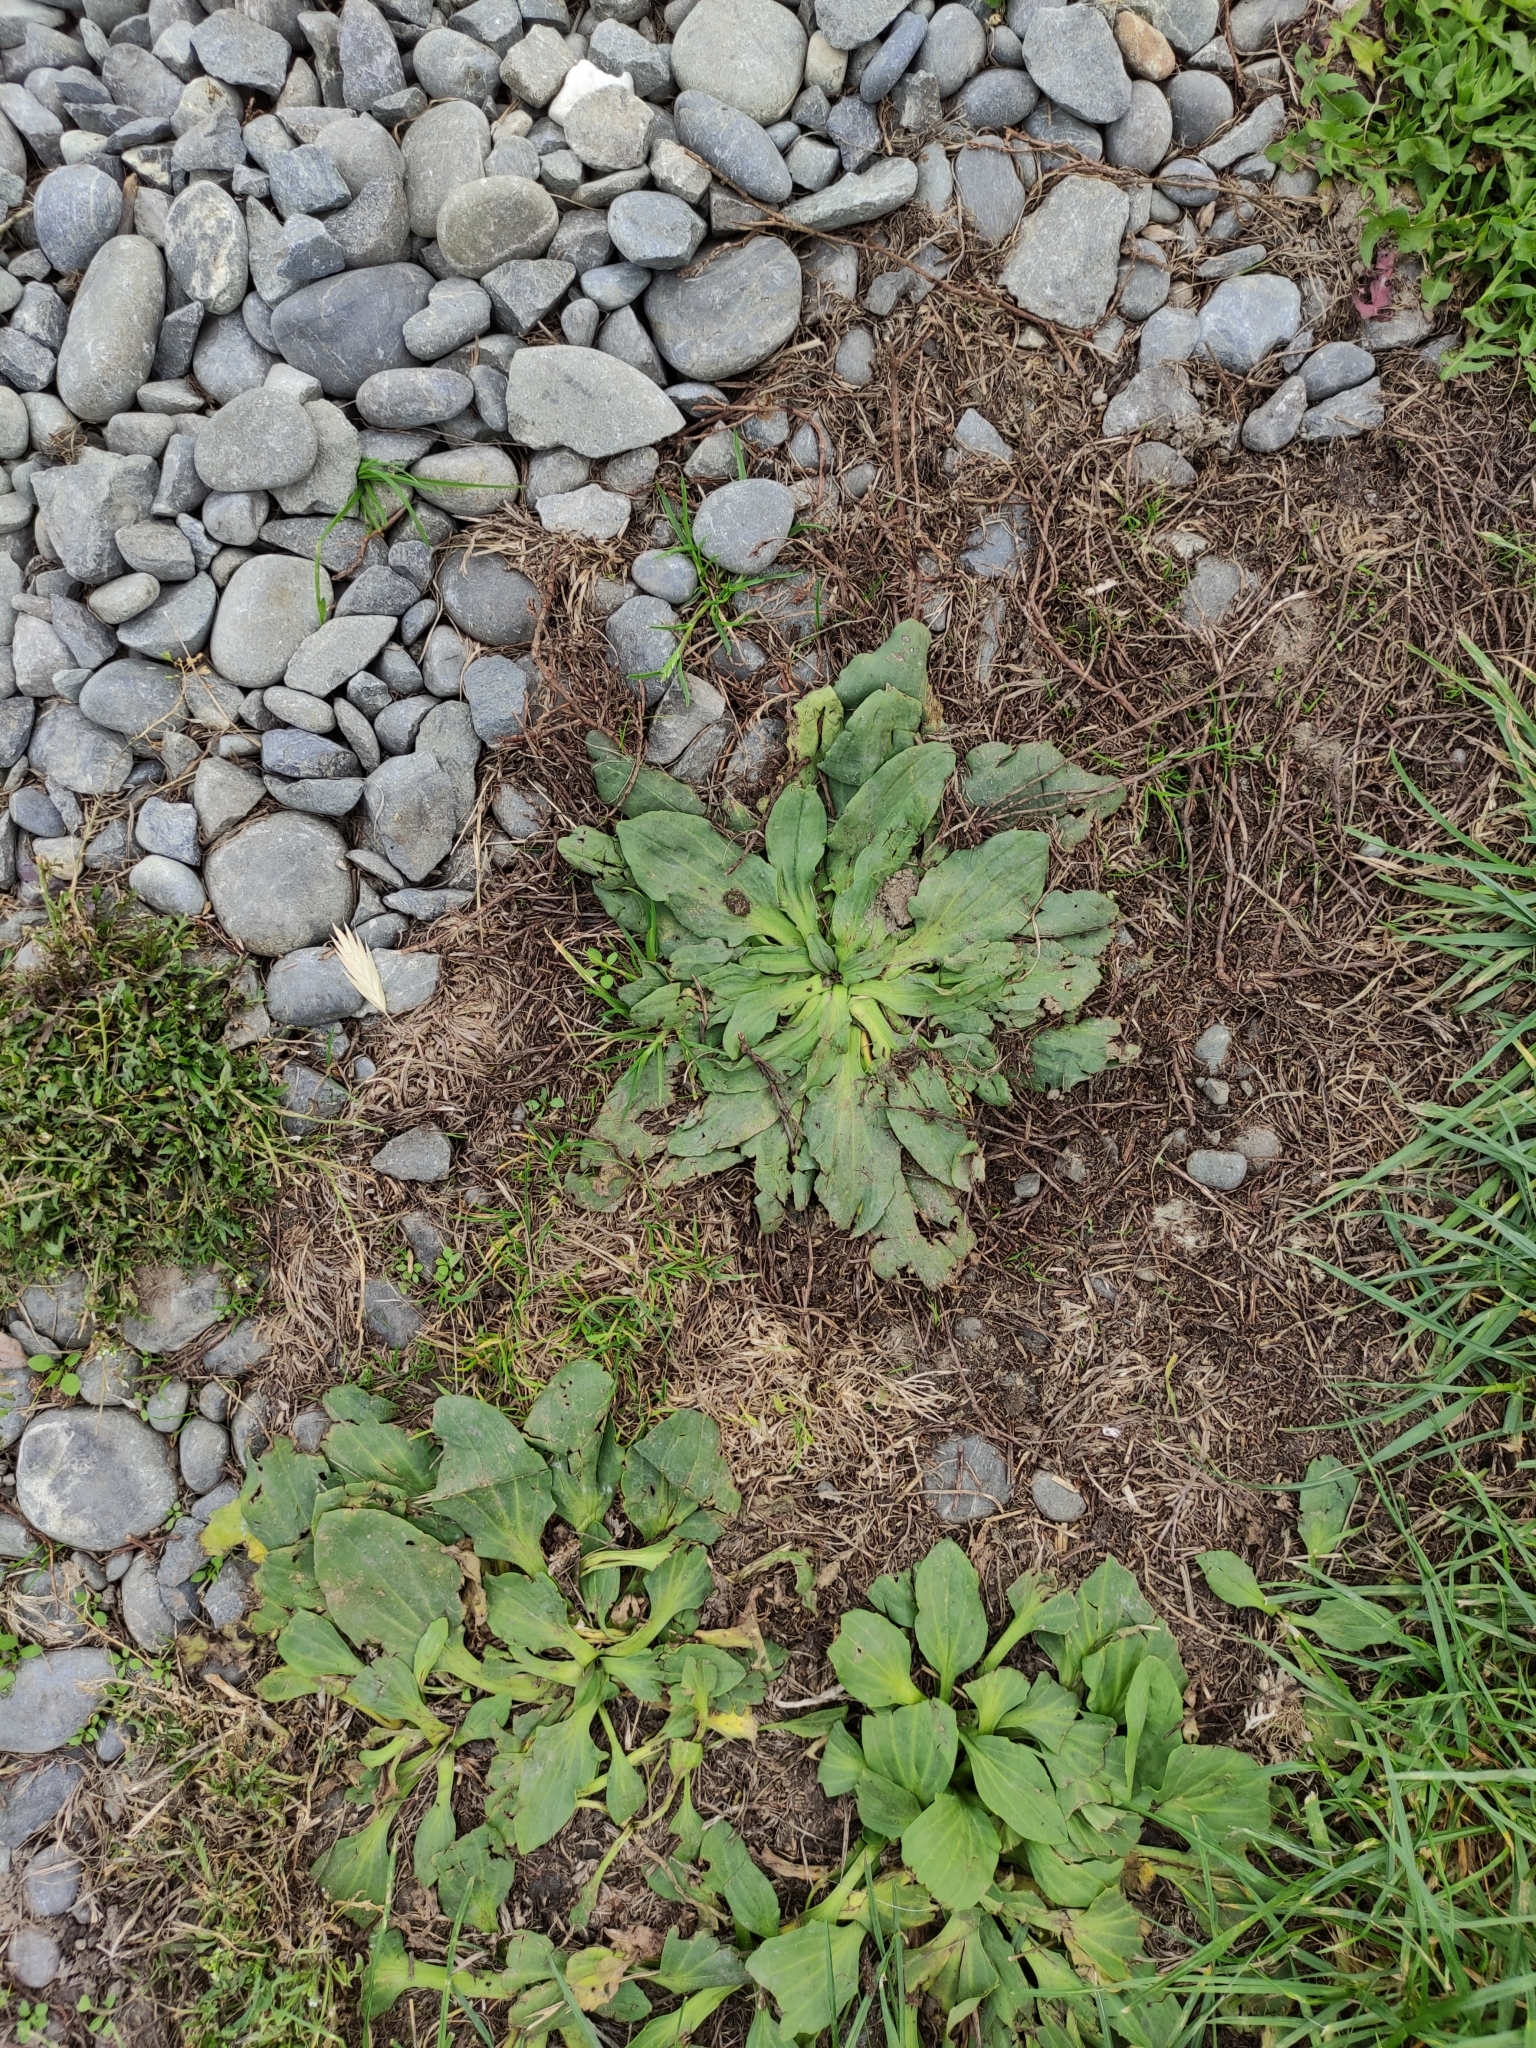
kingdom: Plantae
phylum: Tracheophyta
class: Magnoliopsida
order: Lamiales
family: Plantaginaceae
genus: Plantago
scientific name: Plantago major
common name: Common plantain
